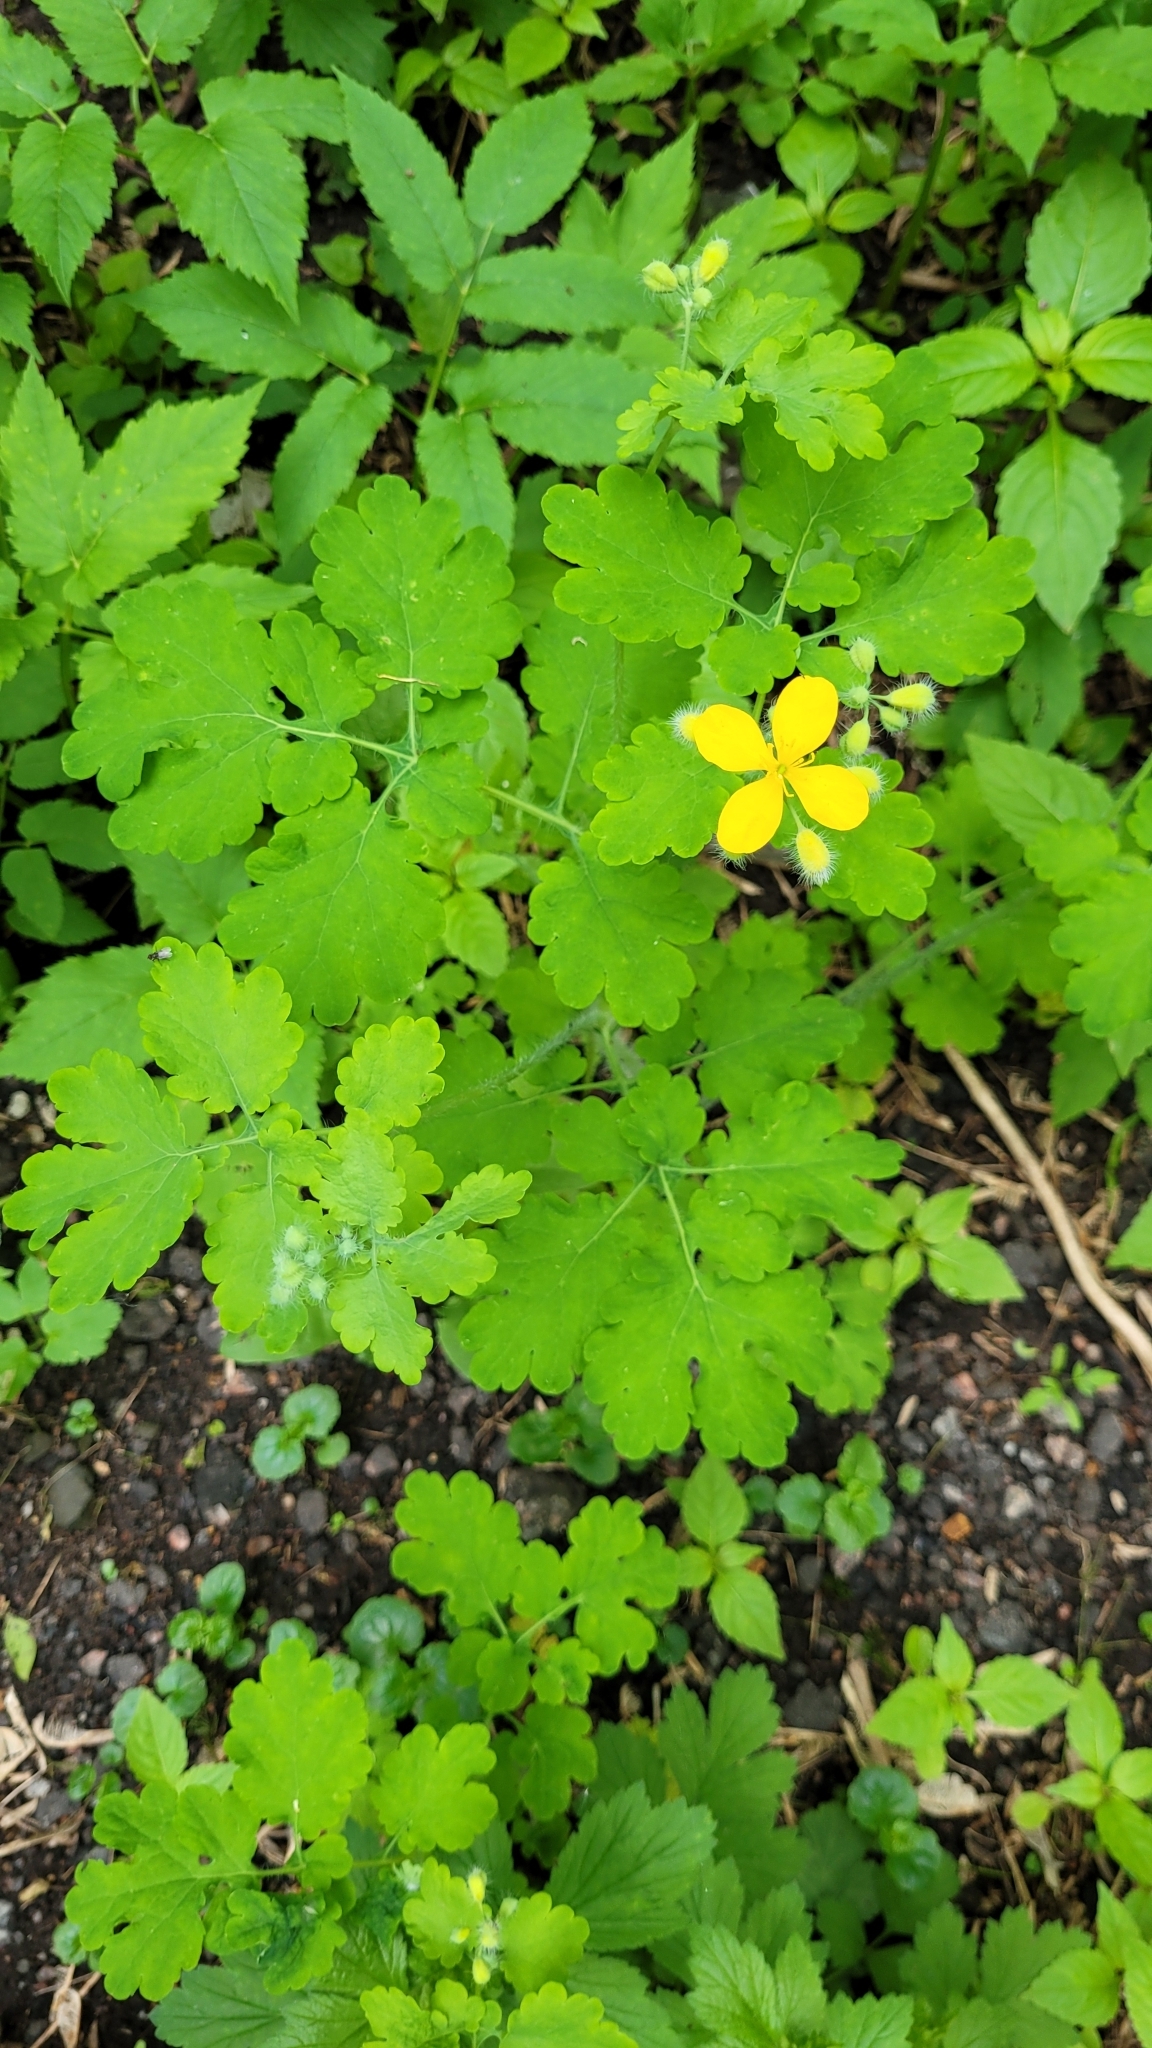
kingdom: Plantae
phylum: Tracheophyta
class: Magnoliopsida
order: Ranunculales
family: Papaveraceae
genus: Chelidonium
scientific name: Chelidonium majus
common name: Greater celandine
